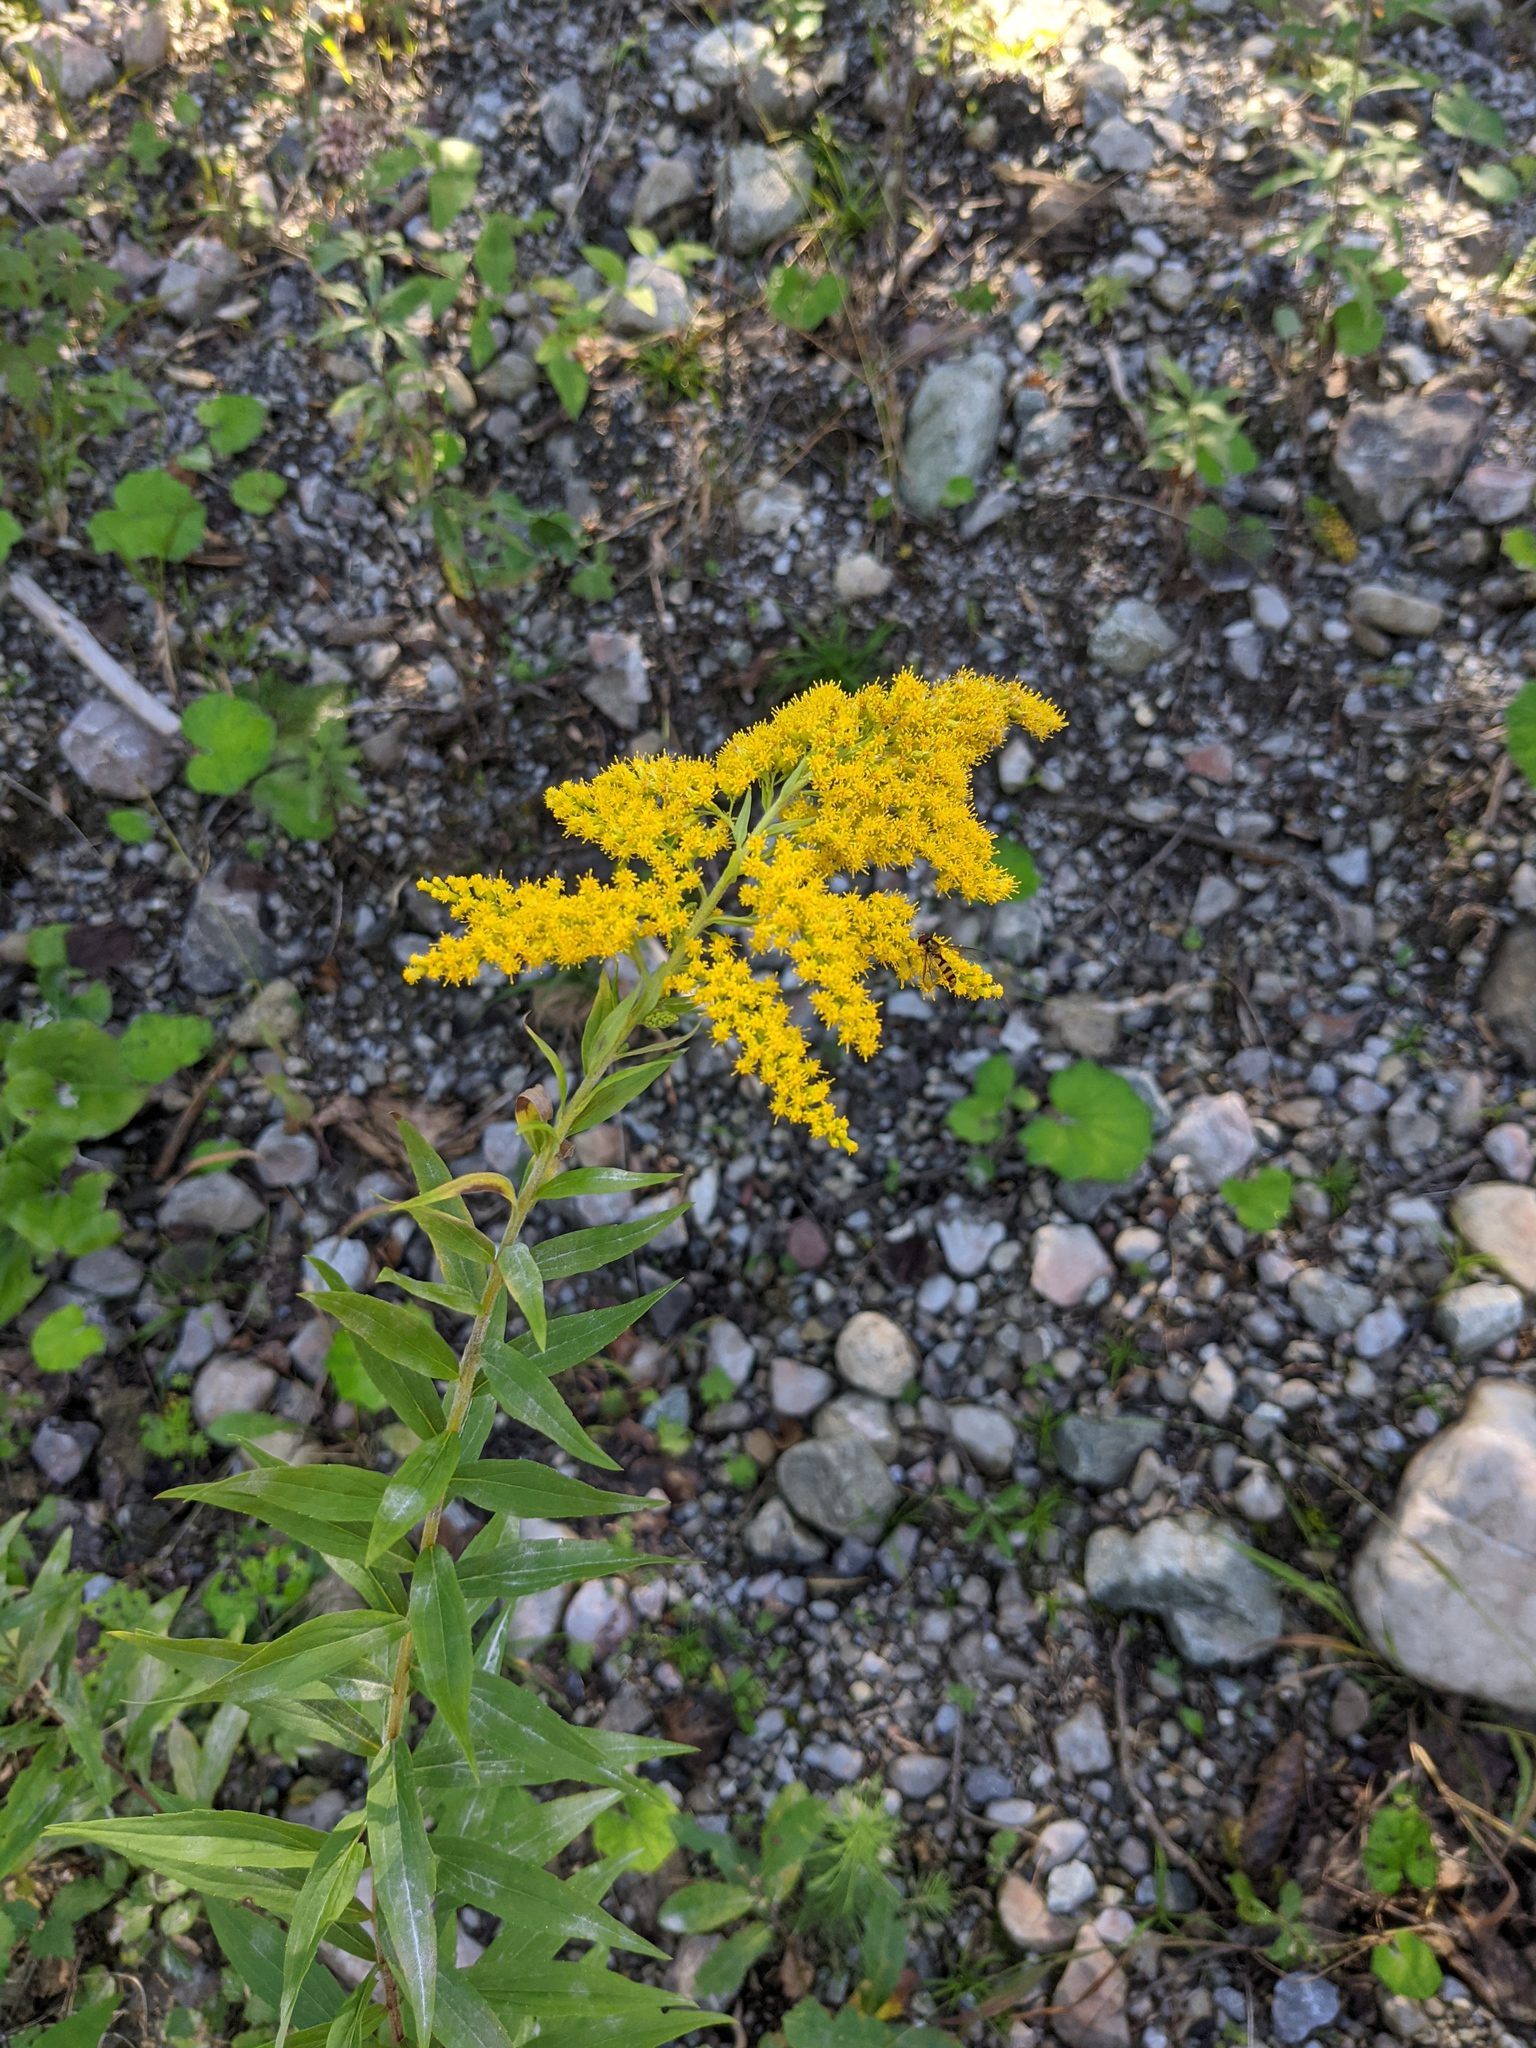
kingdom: Plantae
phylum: Tracheophyta
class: Magnoliopsida
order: Asterales
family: Asteraceae
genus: Solidago
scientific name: Solidago canadensis
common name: Canada goldenrod
